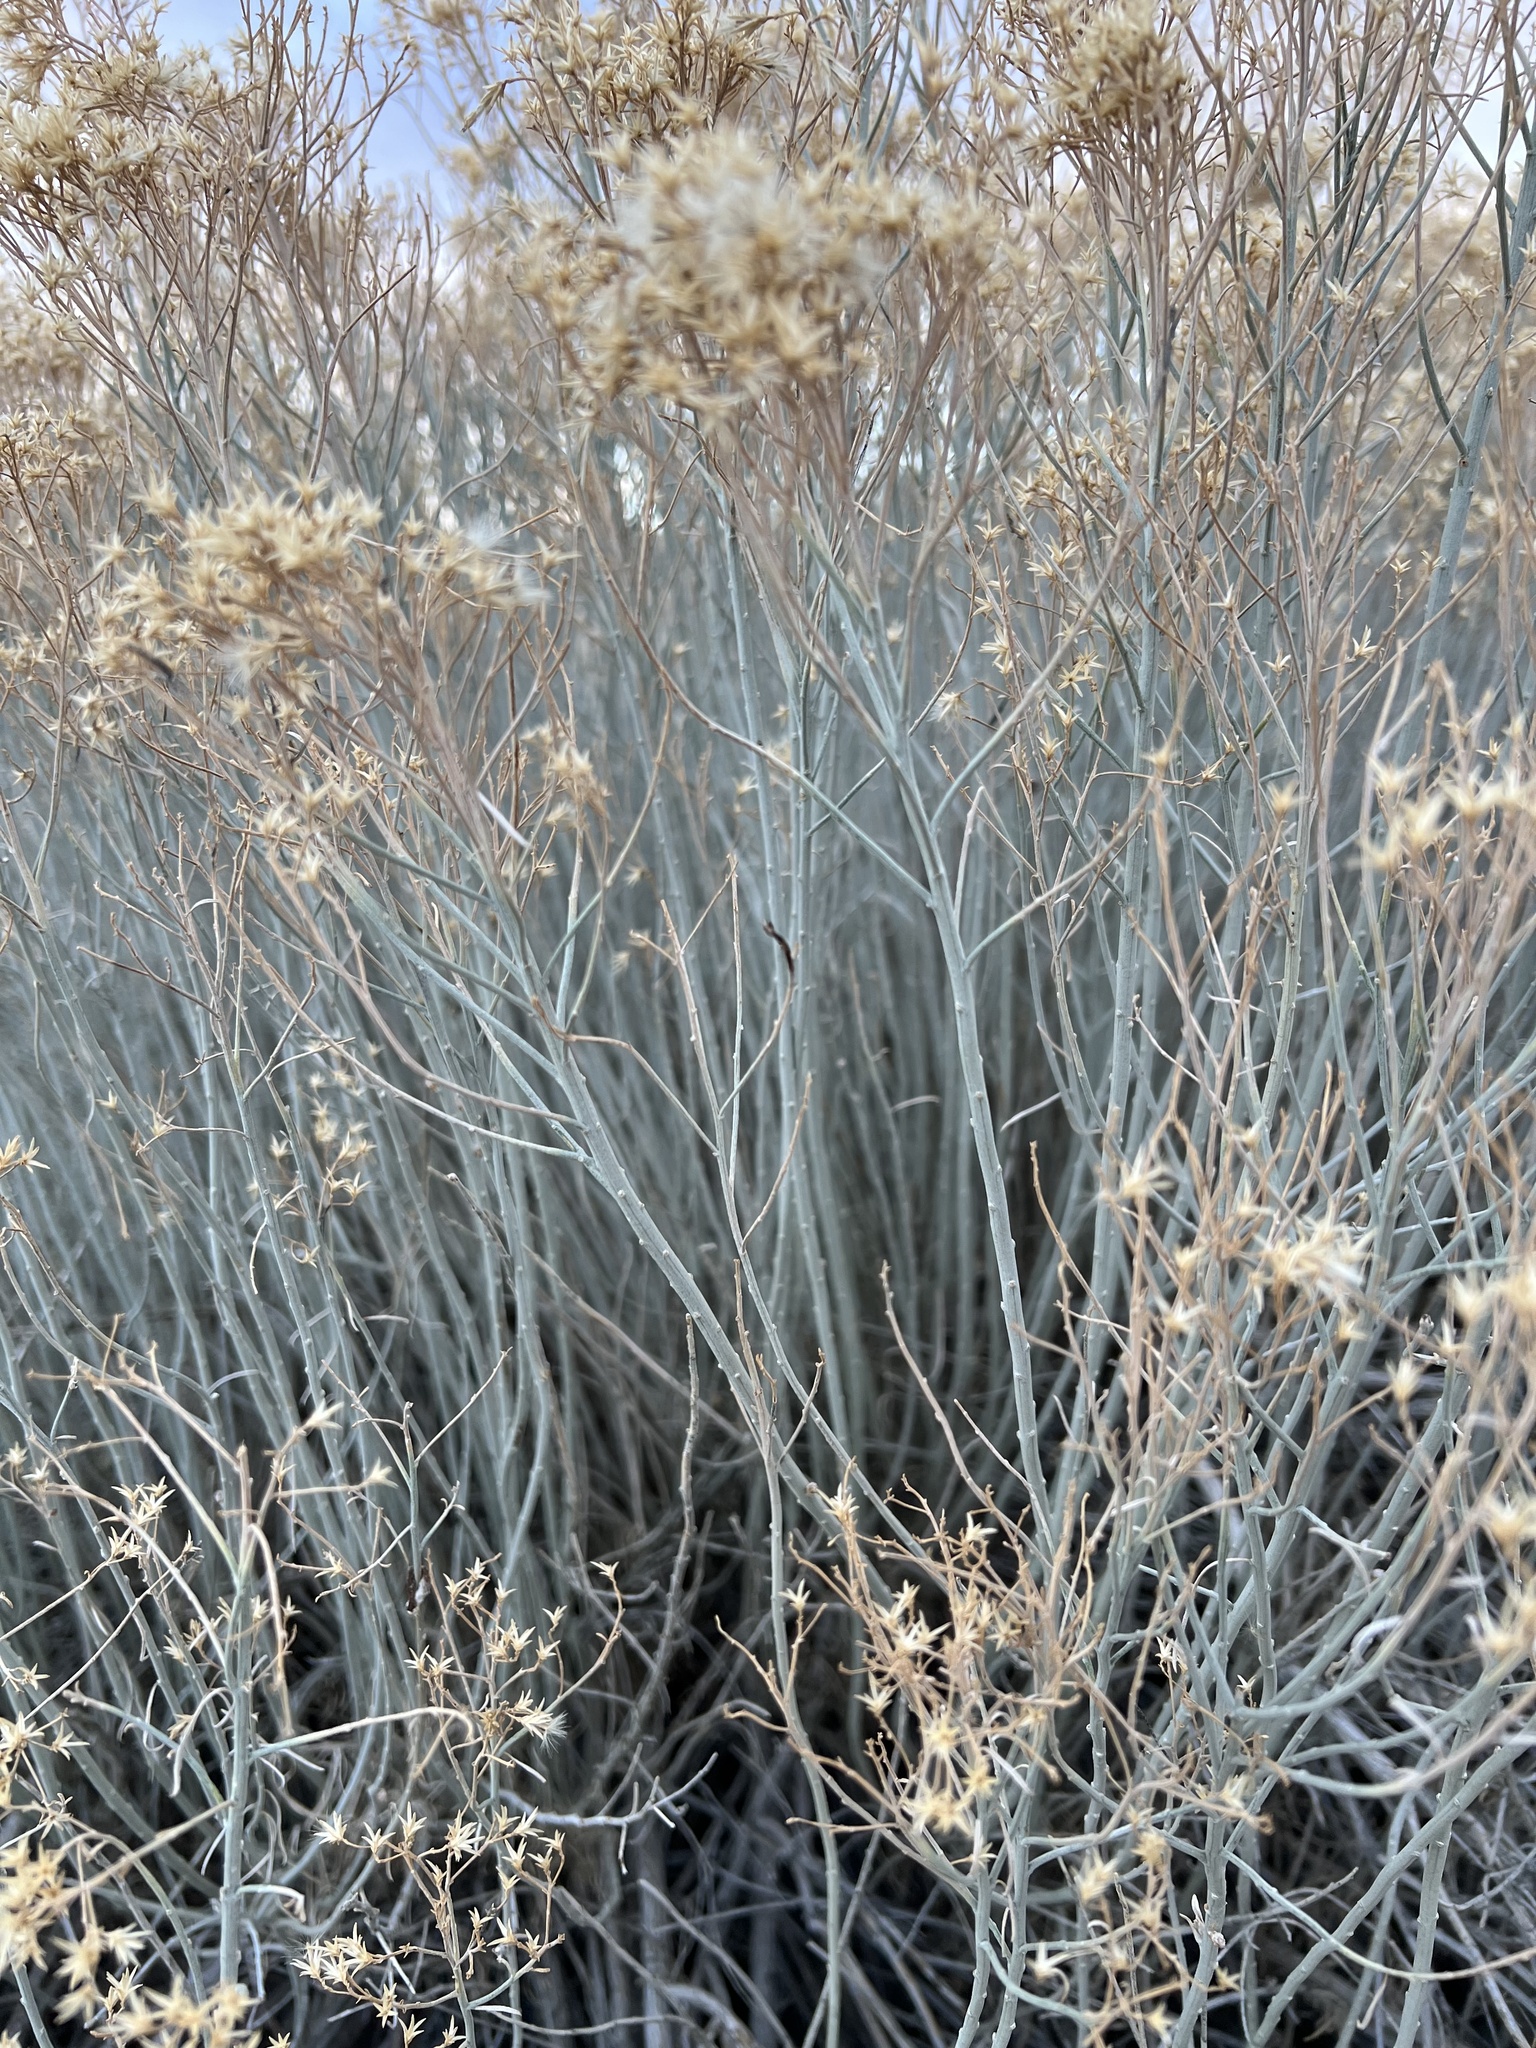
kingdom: Plantae
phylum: Tracheophyta
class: Magnoliopsida
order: Asterales
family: Asteraceae
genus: Ericameria
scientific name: Ericameria nauseosa
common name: Rubber rabbitbrush
